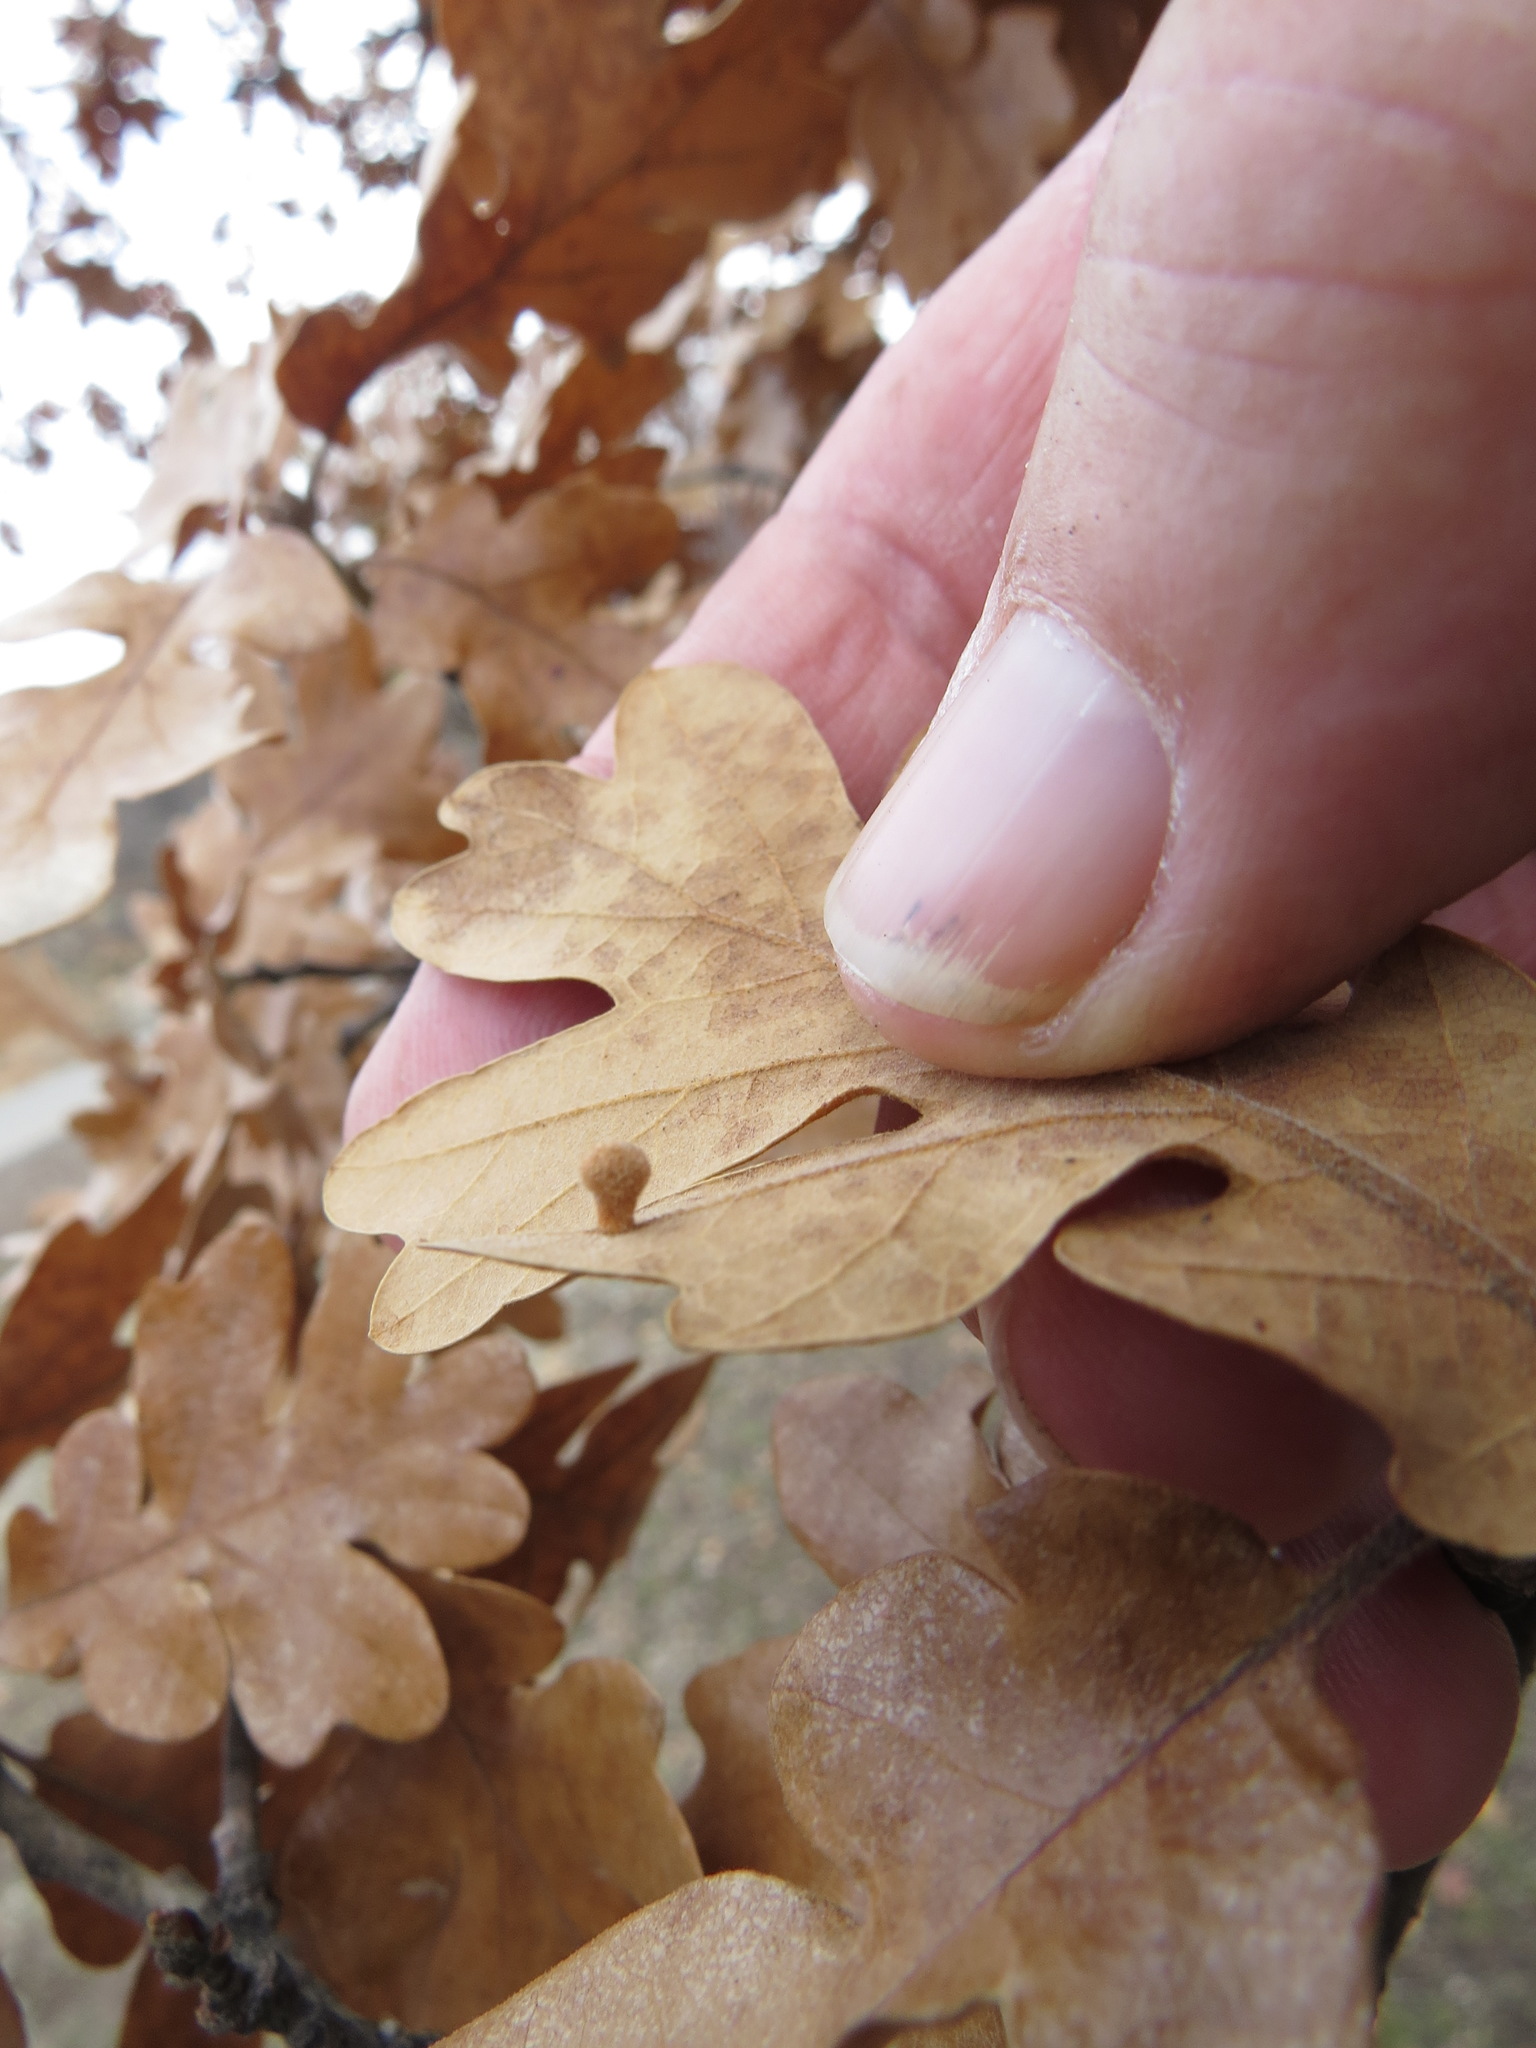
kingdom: Animalia
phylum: Arthropoda
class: Insecta
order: Hymenoptera
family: Cynipidae
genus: Trigonaspis
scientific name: Trigonaspis
